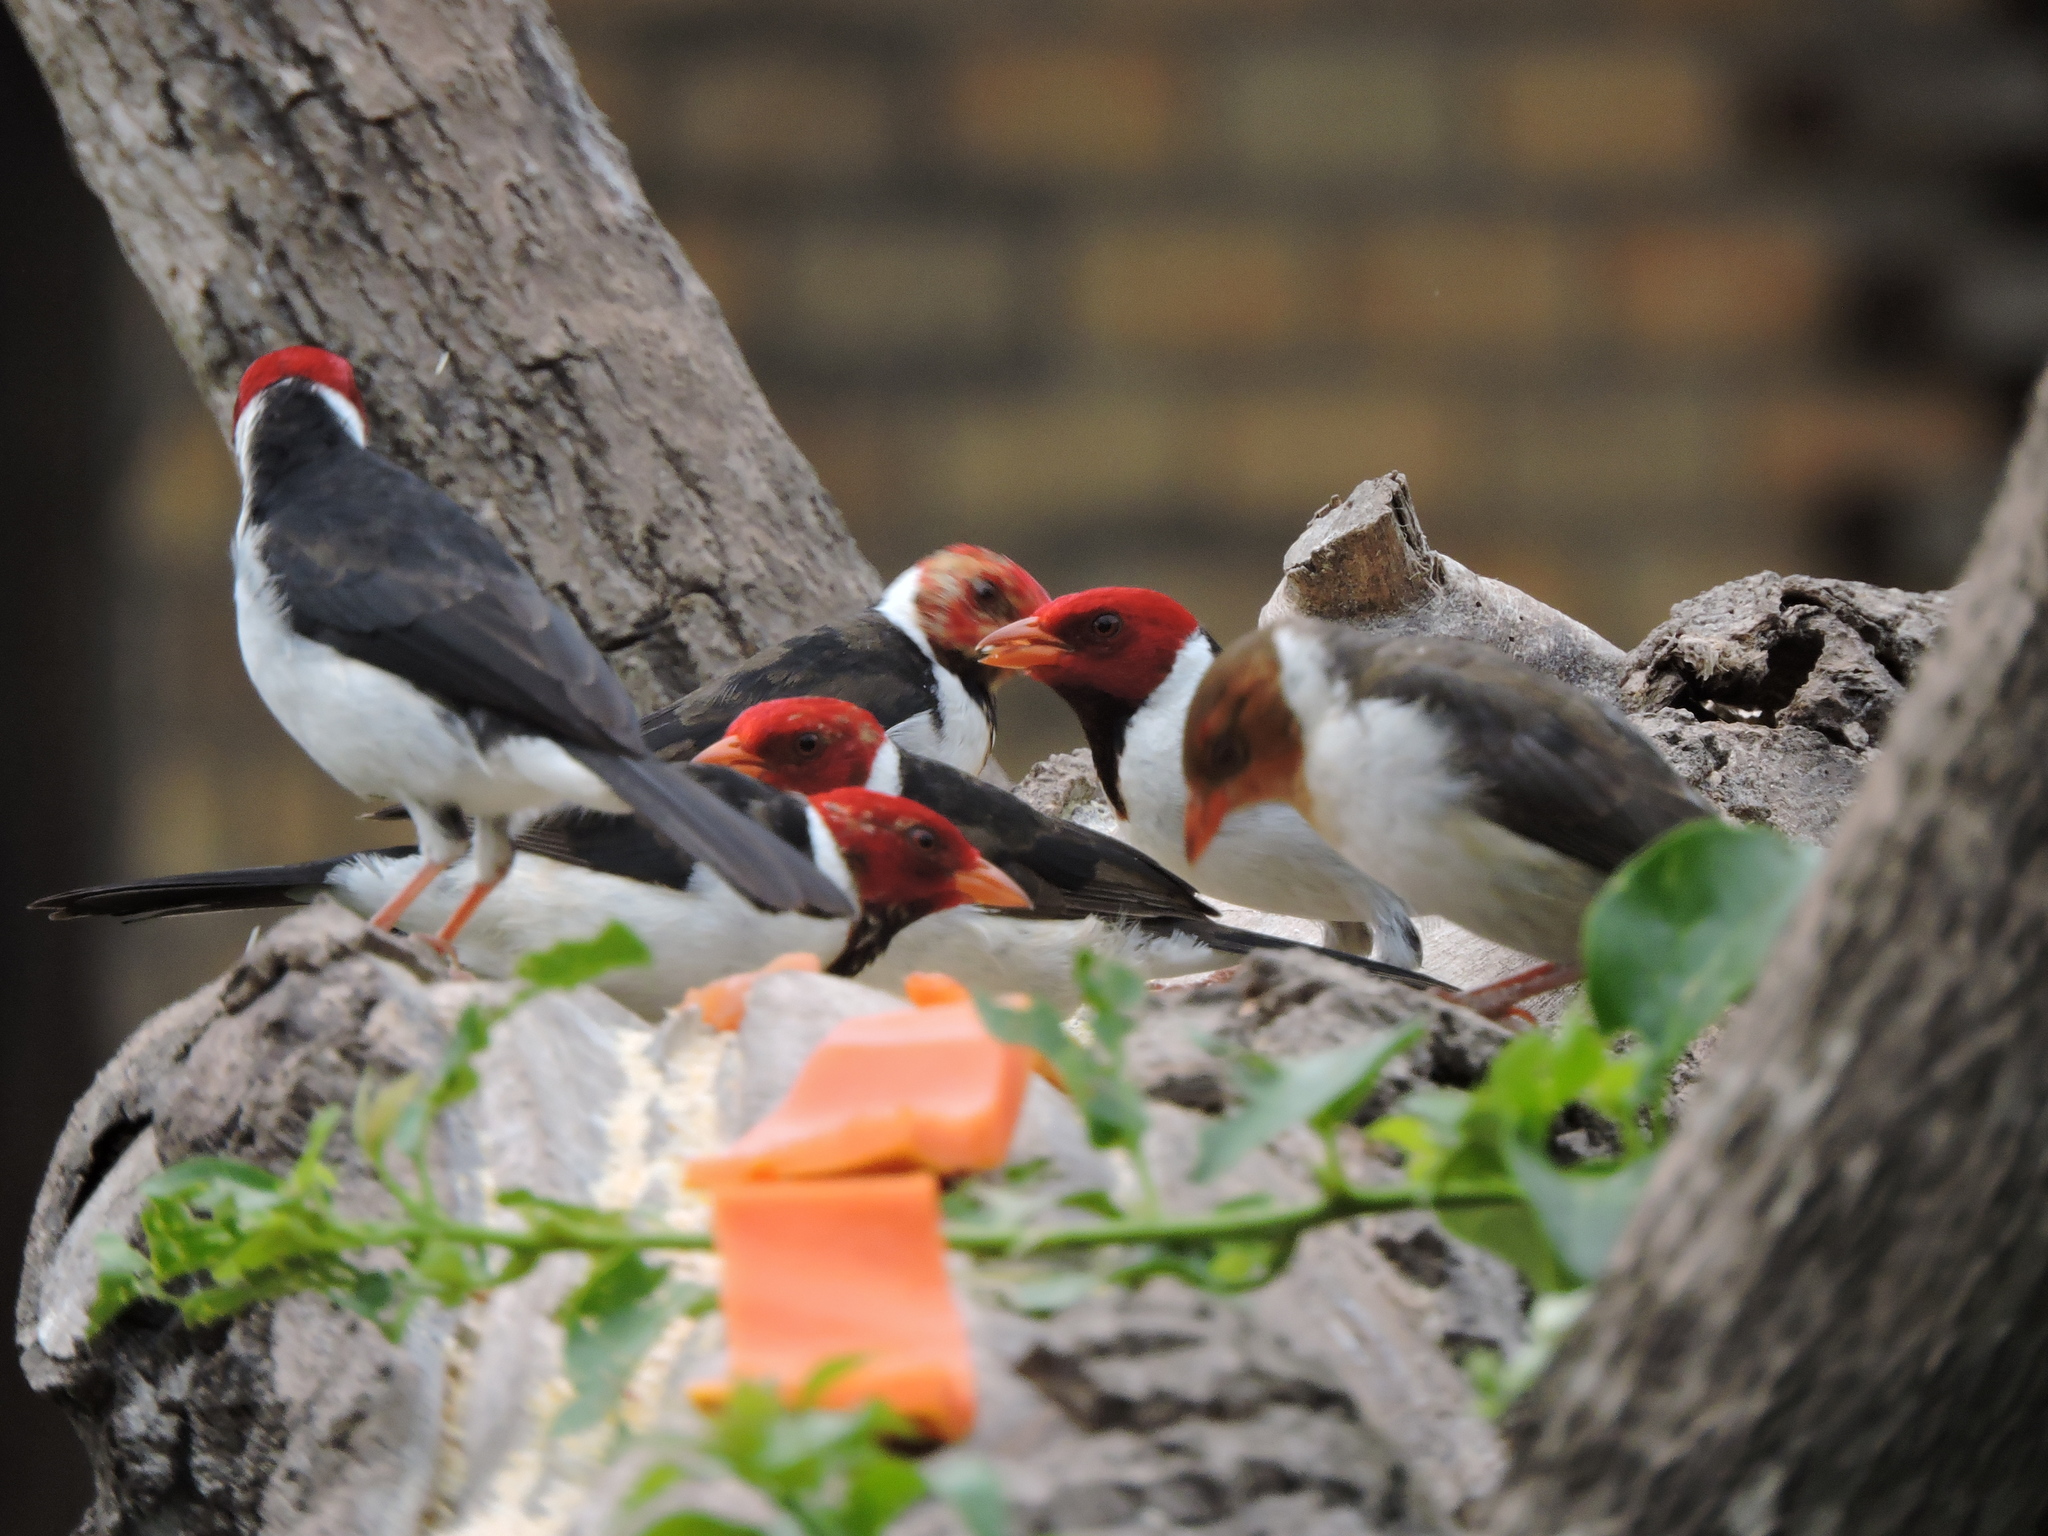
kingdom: Animalia
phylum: Chordata
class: Aves
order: Passeriformes
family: Thraupidae
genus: Paroaria
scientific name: Paroaria capitata
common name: Yellow-billed cardinal
